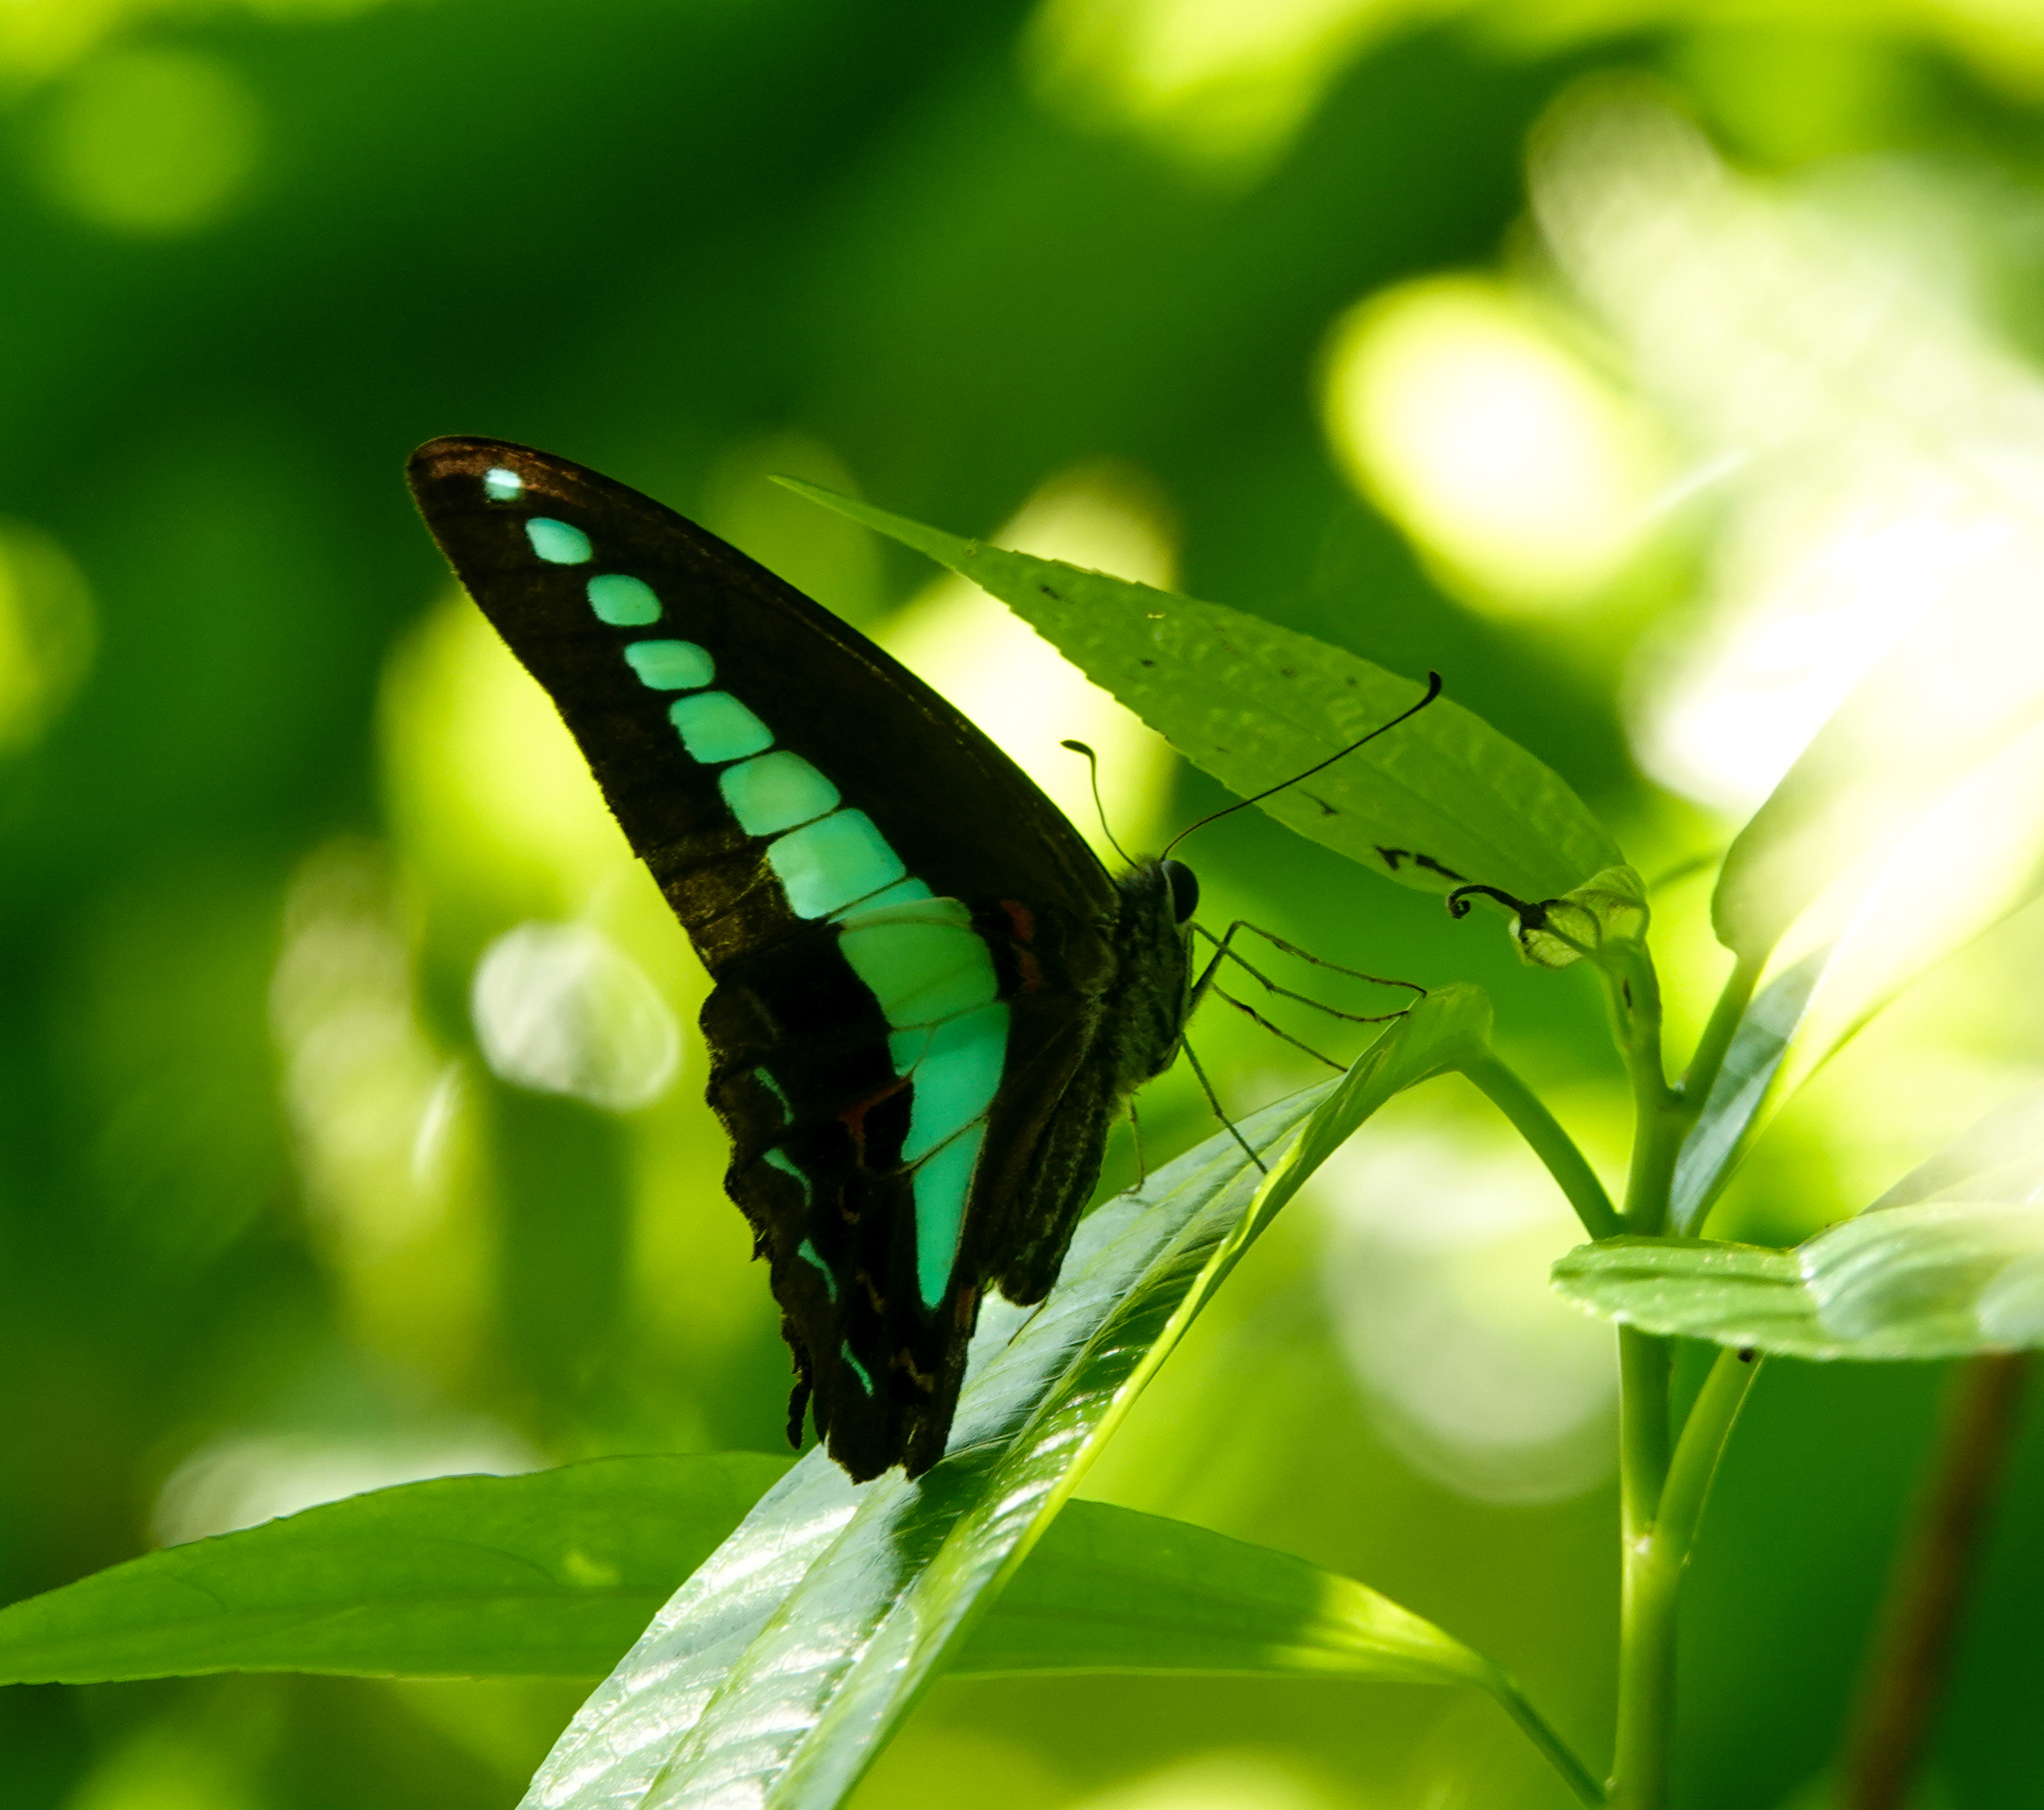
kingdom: Fungi
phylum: Ascomycota
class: Sordariomycetes
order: Microascales
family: Microascaceae
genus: Graphium
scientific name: Graphium sarpedon
